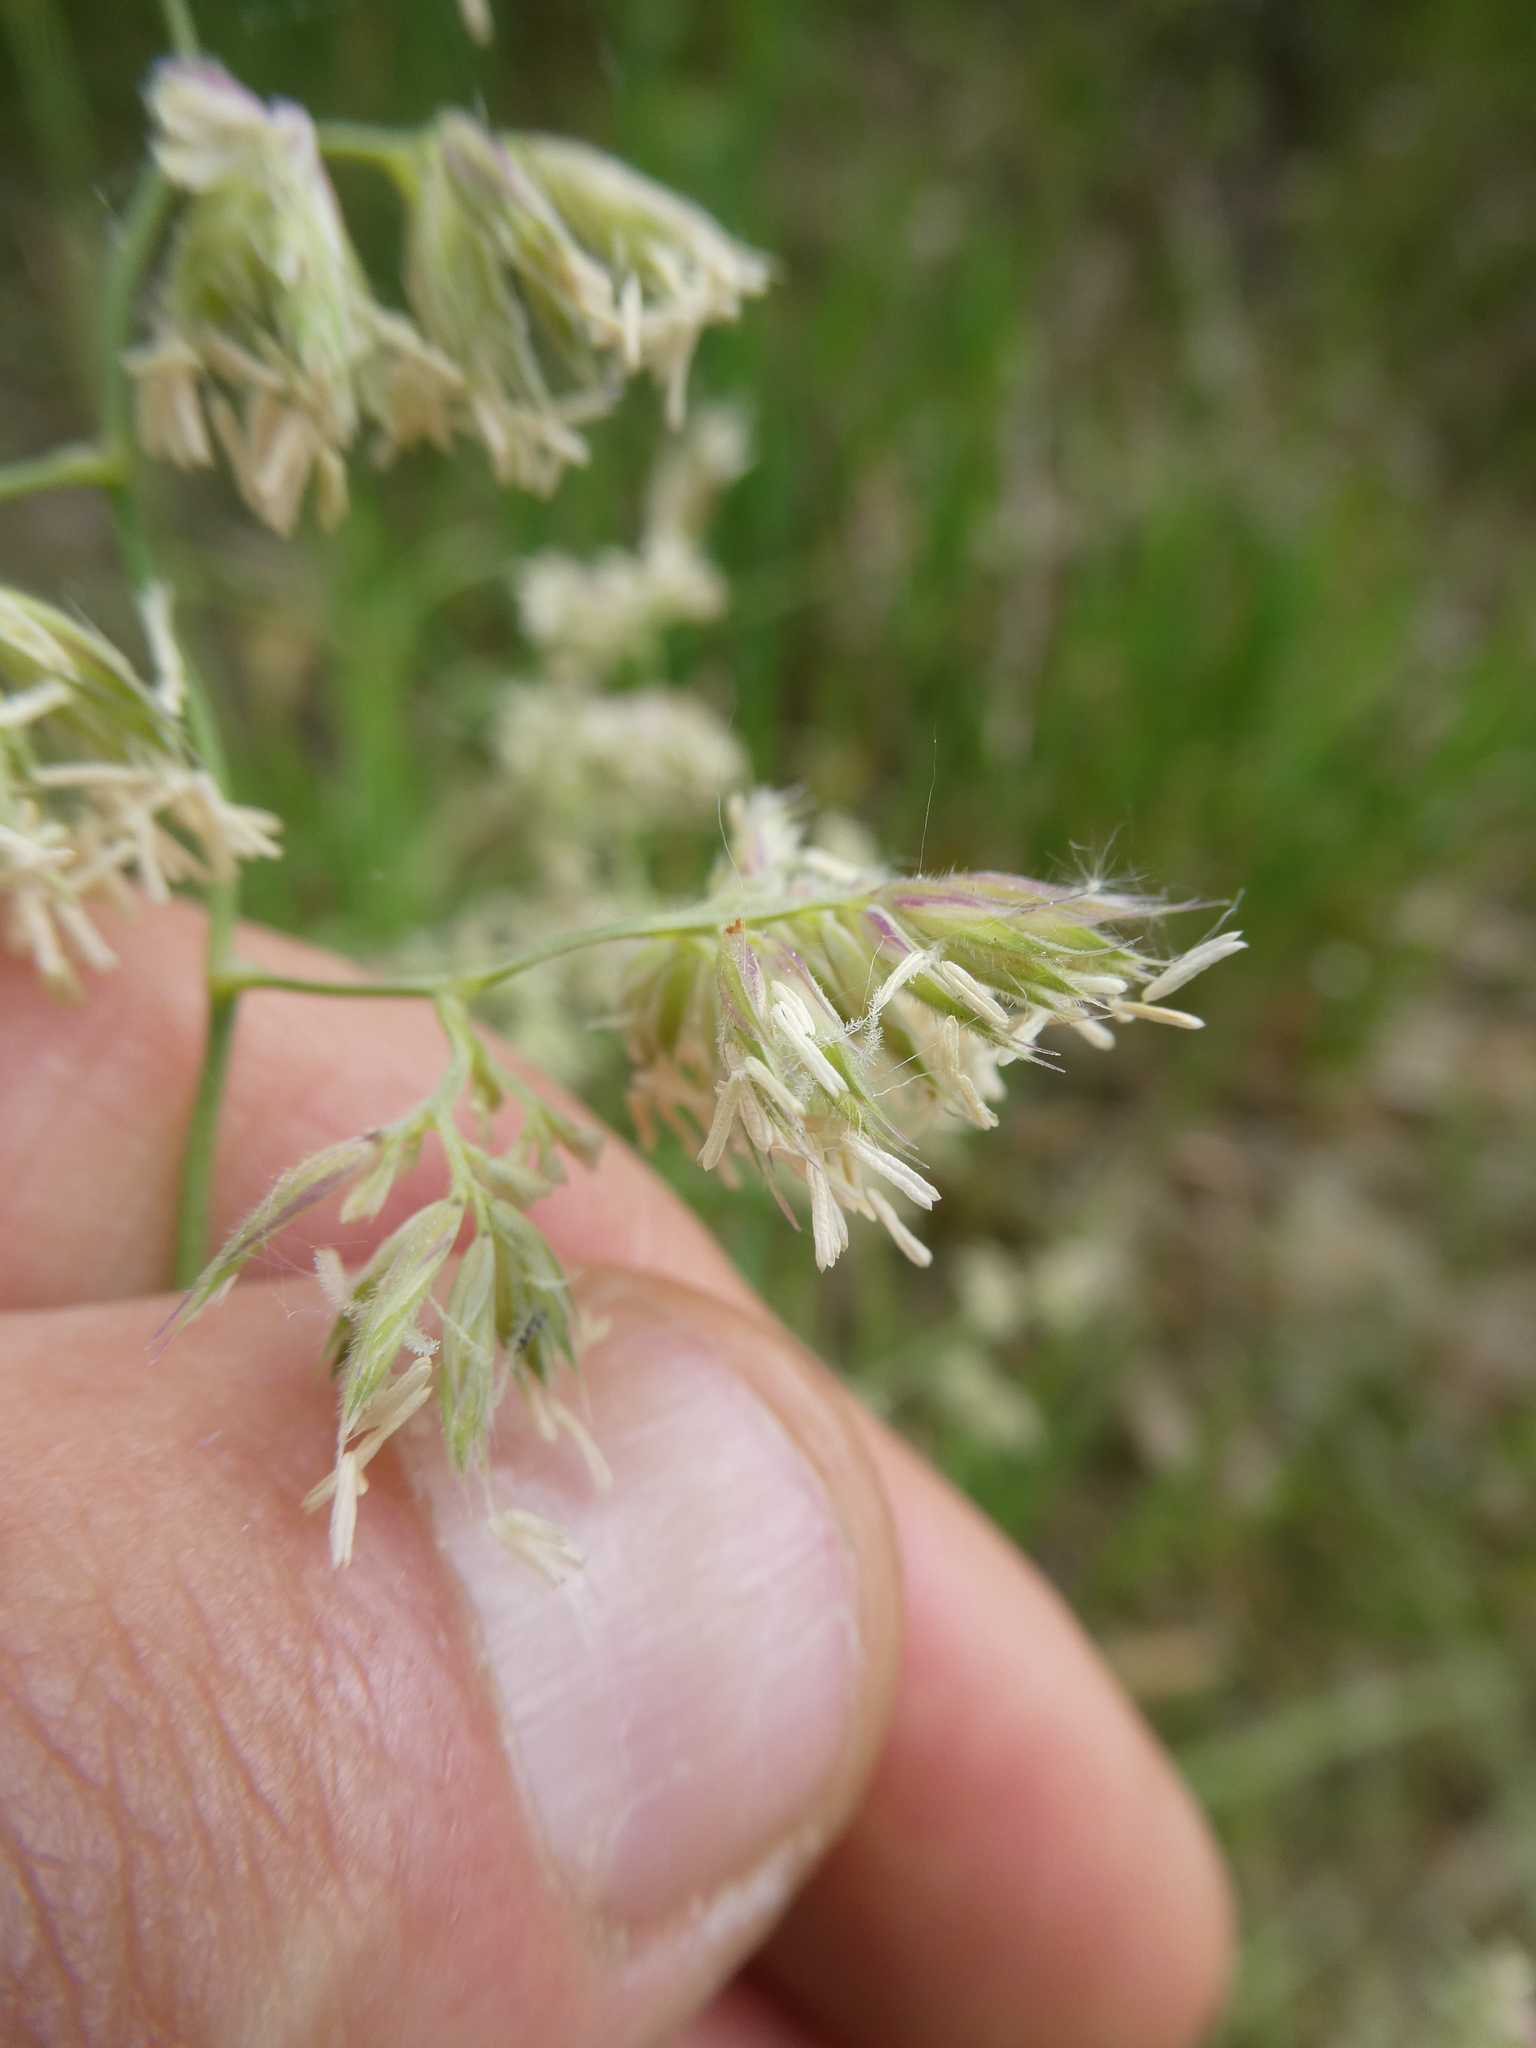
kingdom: Plantae
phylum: Tracheophyta
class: Liliopsida
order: Poales
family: Poaceae
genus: Dactylis
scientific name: Dactylis glomerata
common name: Orchardgrass
